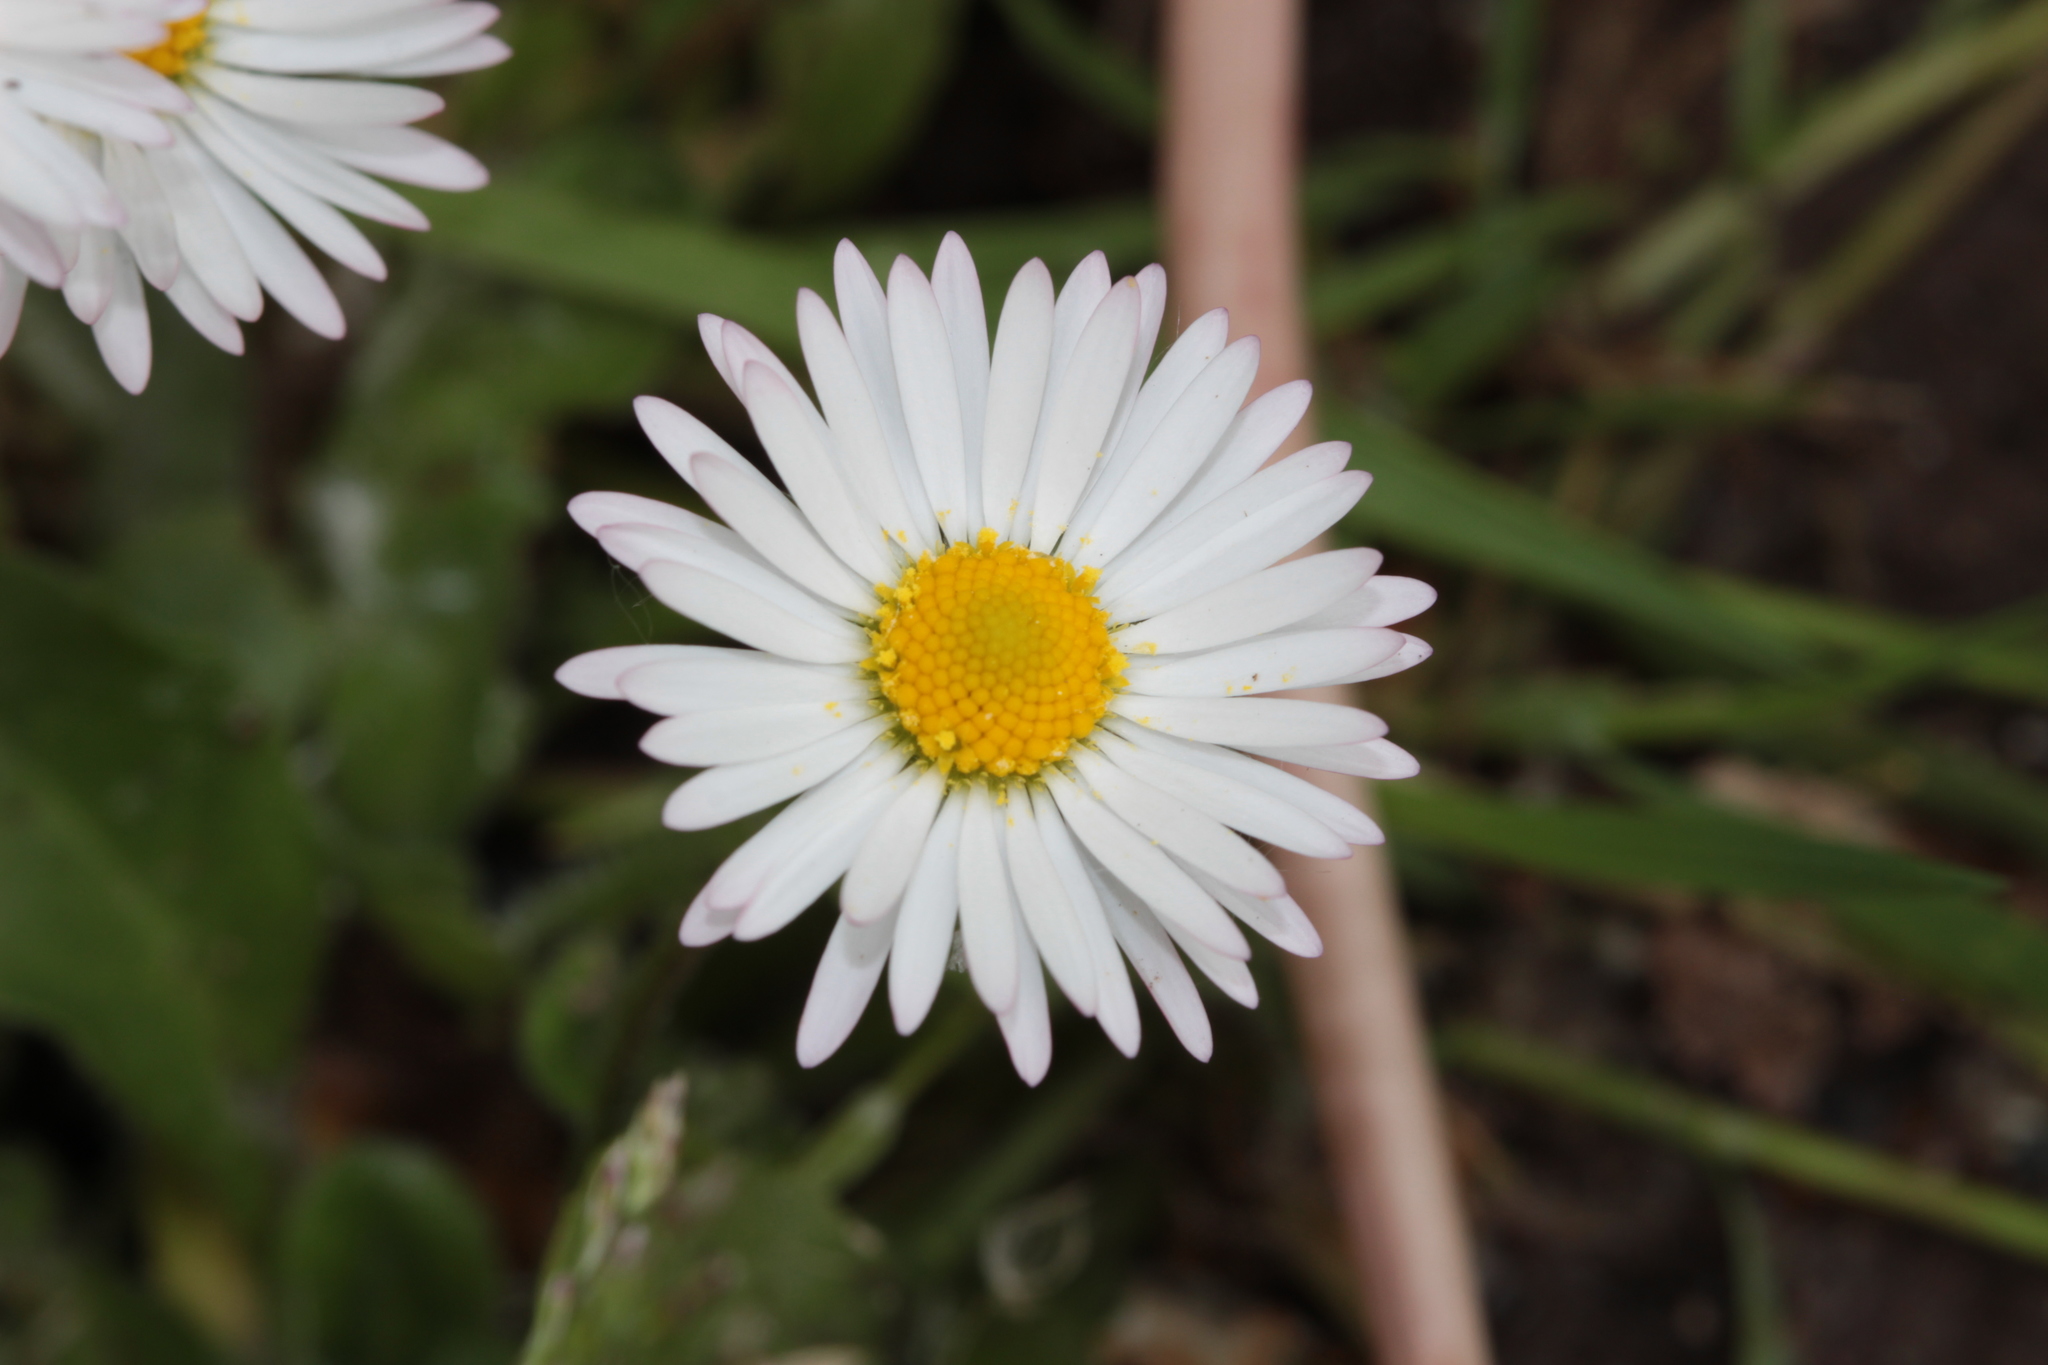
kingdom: Plantae
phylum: Tracheophyta
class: Magnoliopsida
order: Asterales
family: Asteraceae
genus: Bellis
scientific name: Bellis perennis
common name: Lawndaisy
